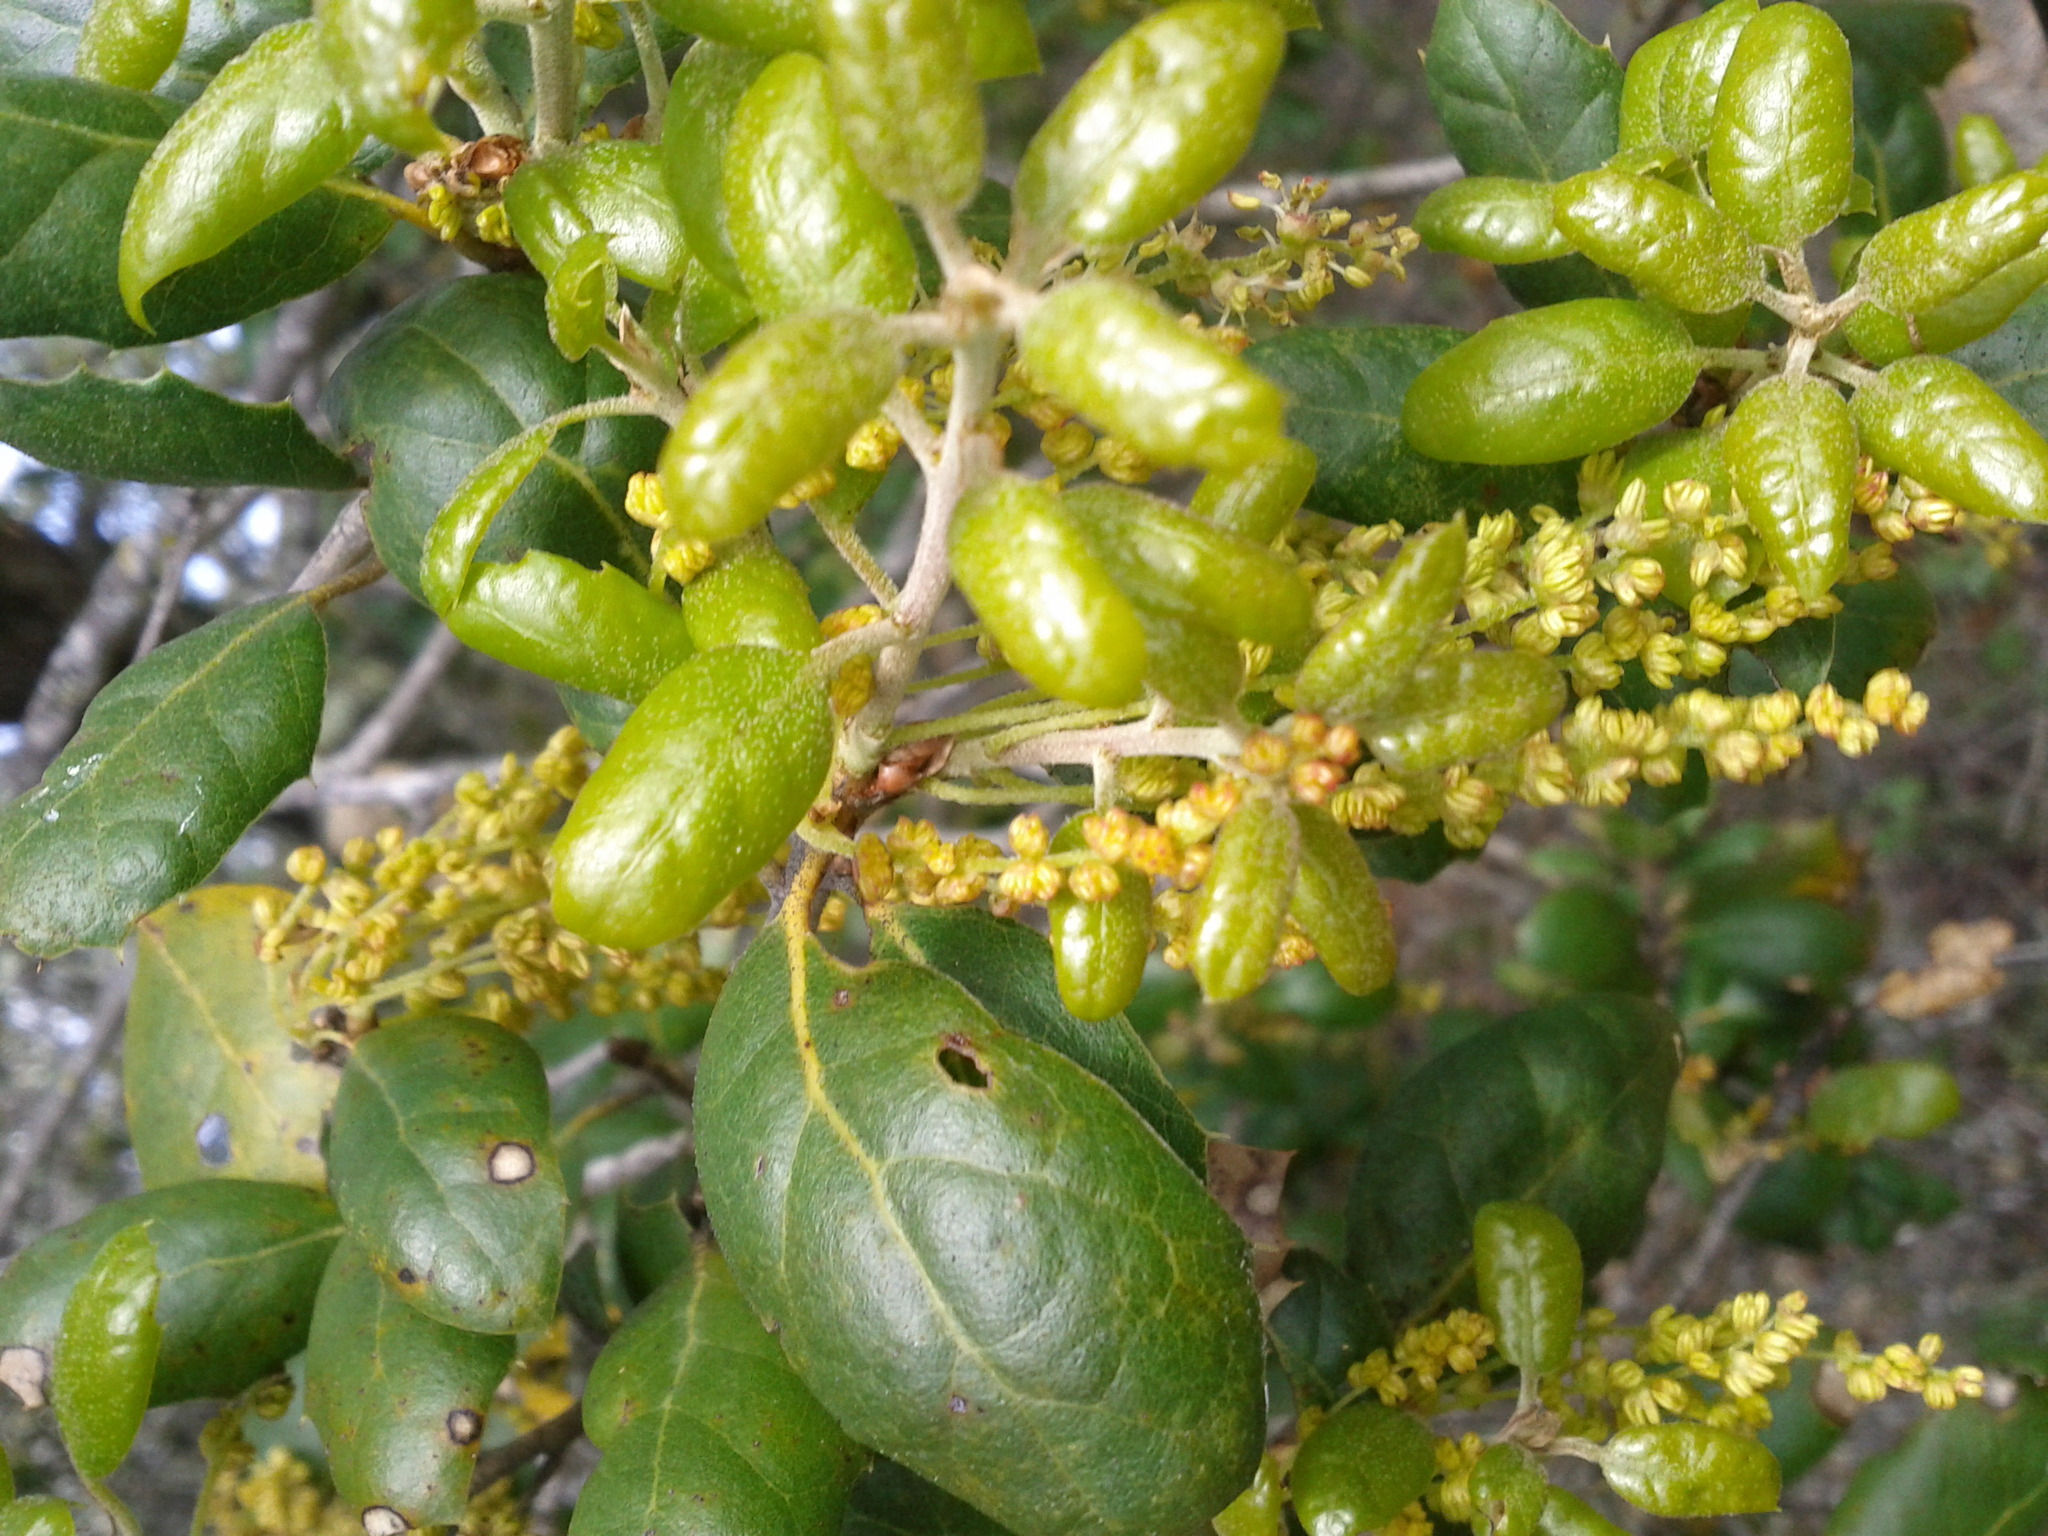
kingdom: Plantae
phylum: Tracheophyta
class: Magnoliopsida
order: Fagales
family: Fagaceae
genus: Quercus
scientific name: Quercus agrifolia
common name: California live oak
